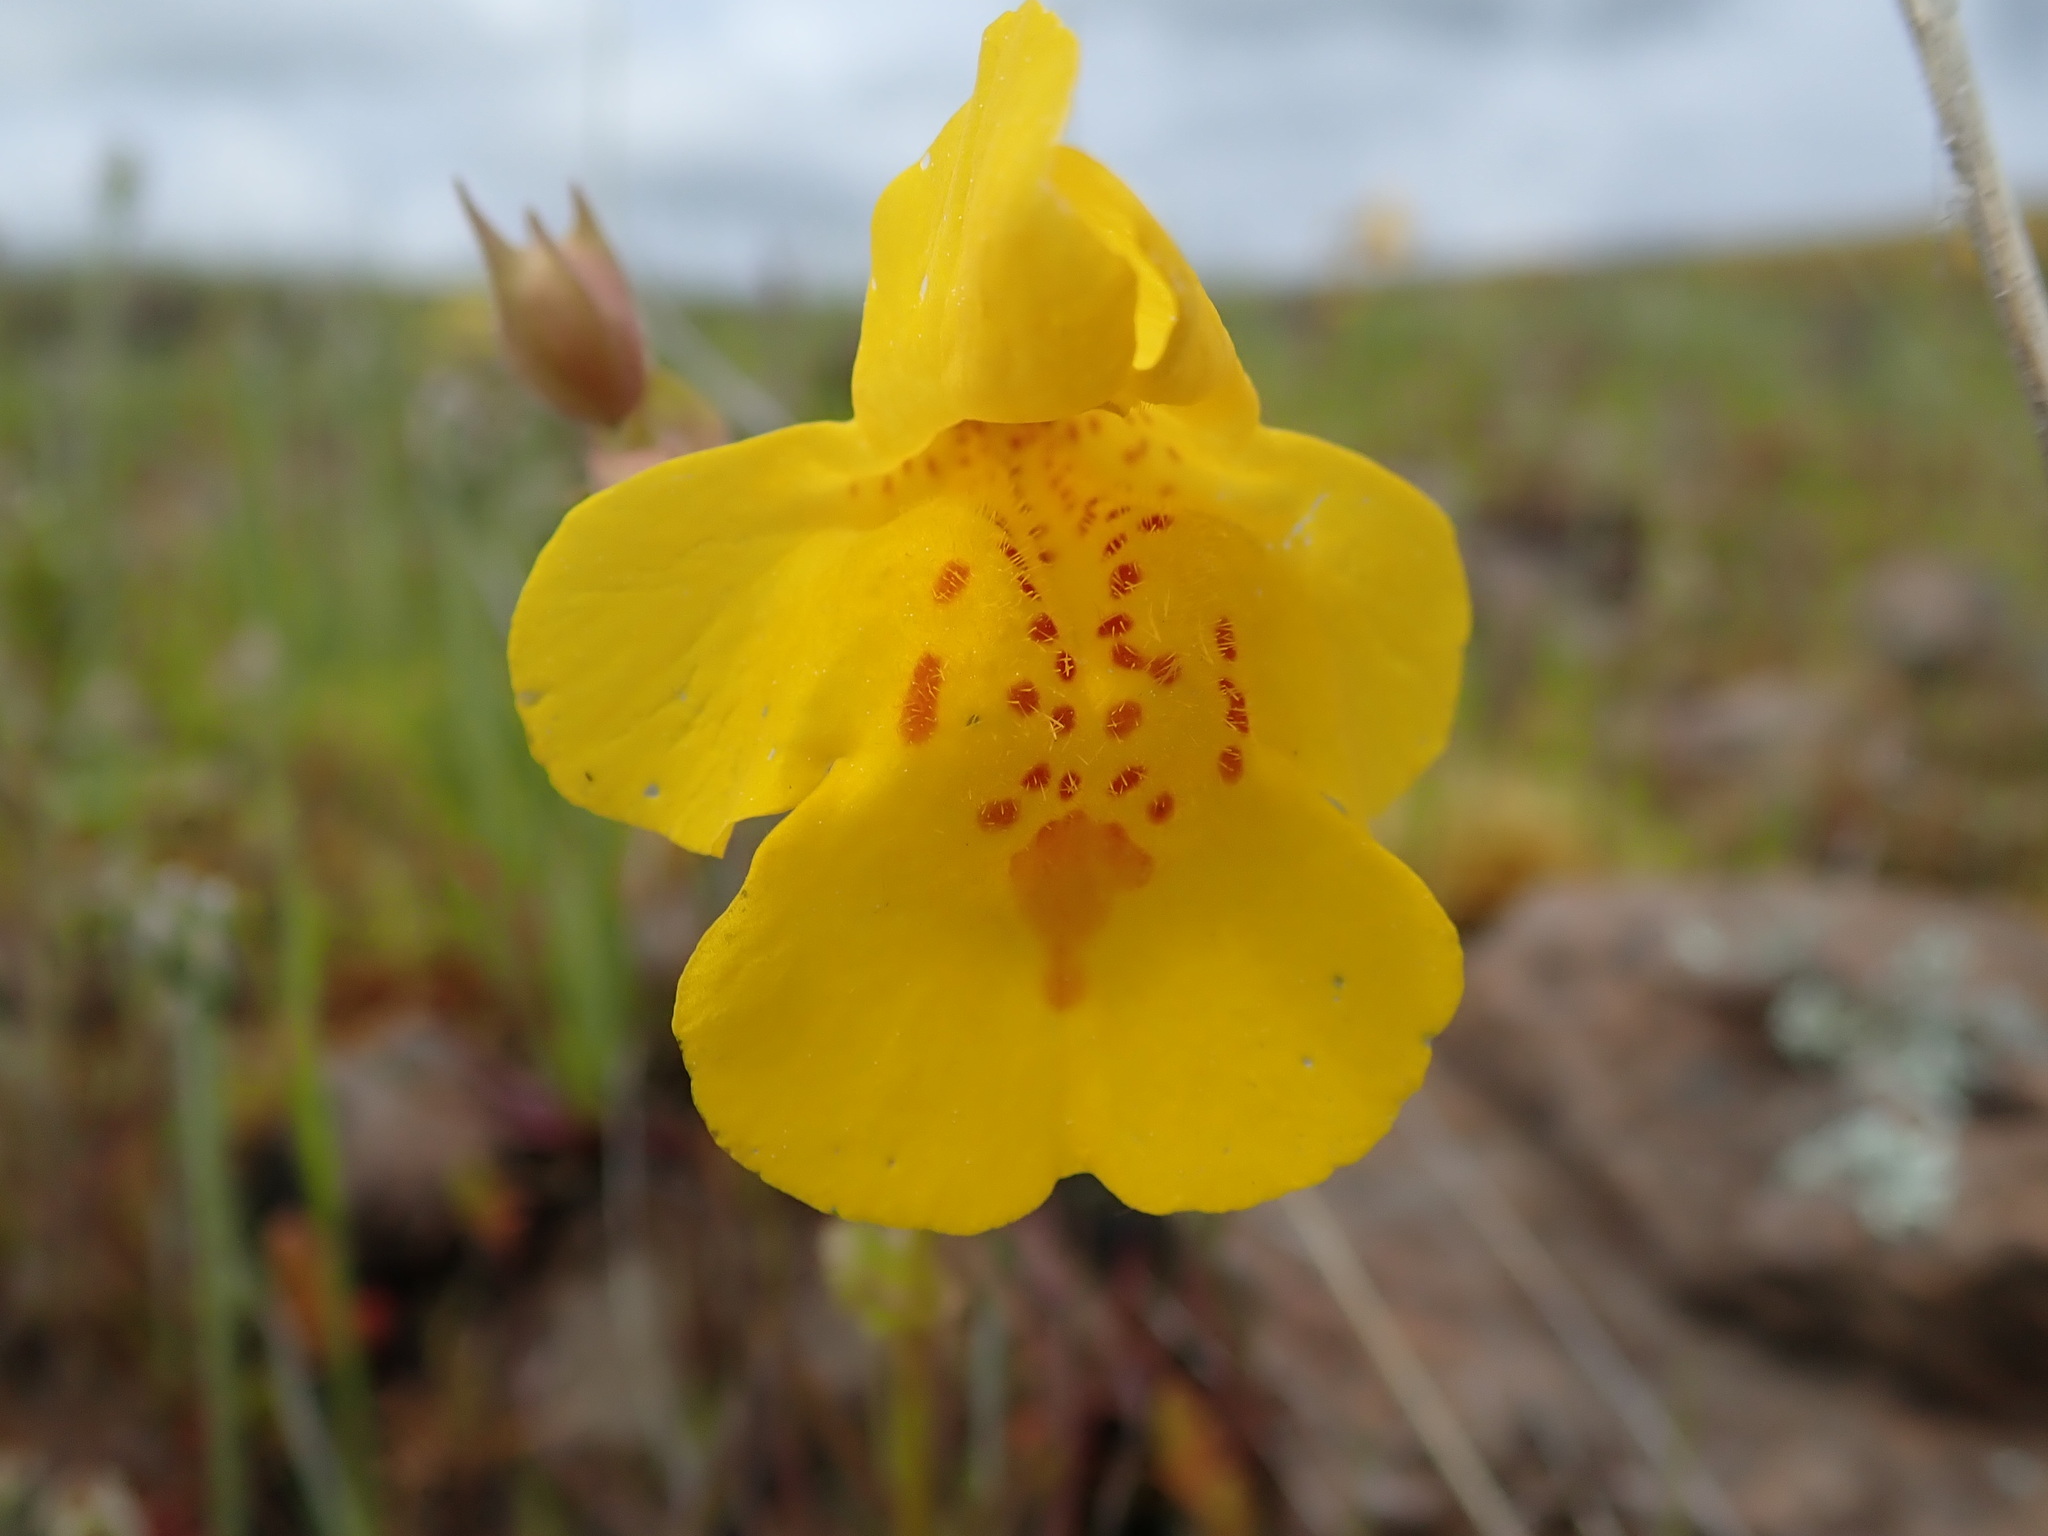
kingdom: Plantae
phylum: Tracheophyta
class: Magnoliopsida
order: Lamiales
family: Phrymaceae
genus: Erythranthe
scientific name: Erythranthe guttata
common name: Monkeyflower
